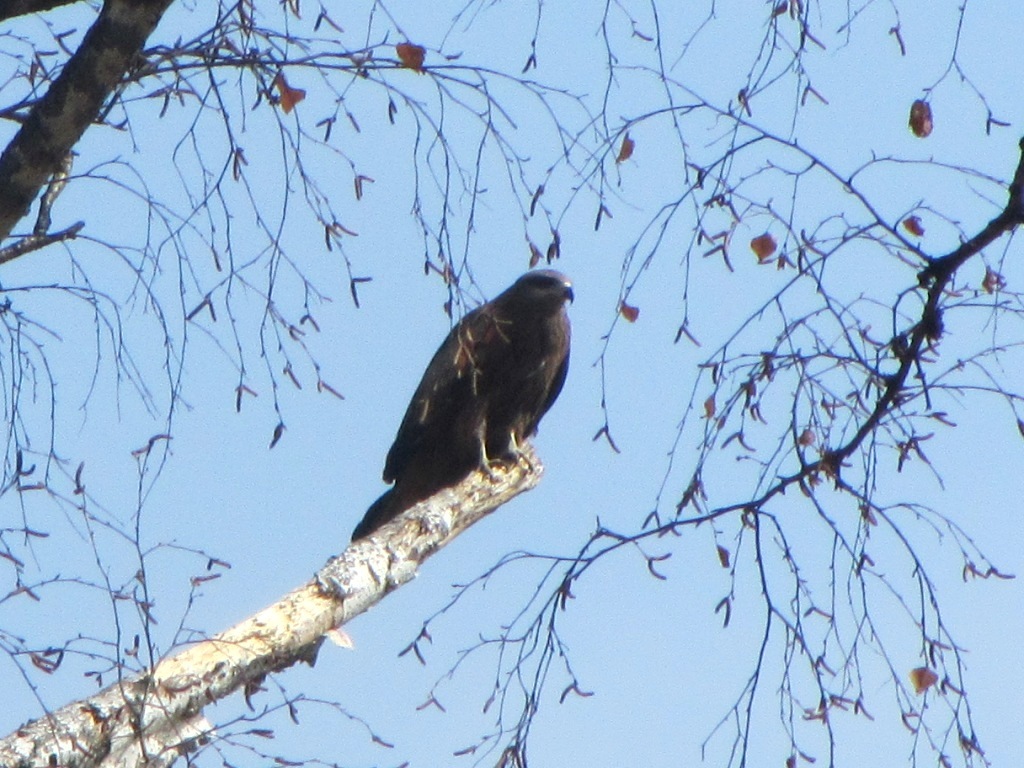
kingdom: Animalia
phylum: Chordata
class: Aves
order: Accipitriformes
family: Accipitridae
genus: Milvus
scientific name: Milvus migrans
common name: Black kite
